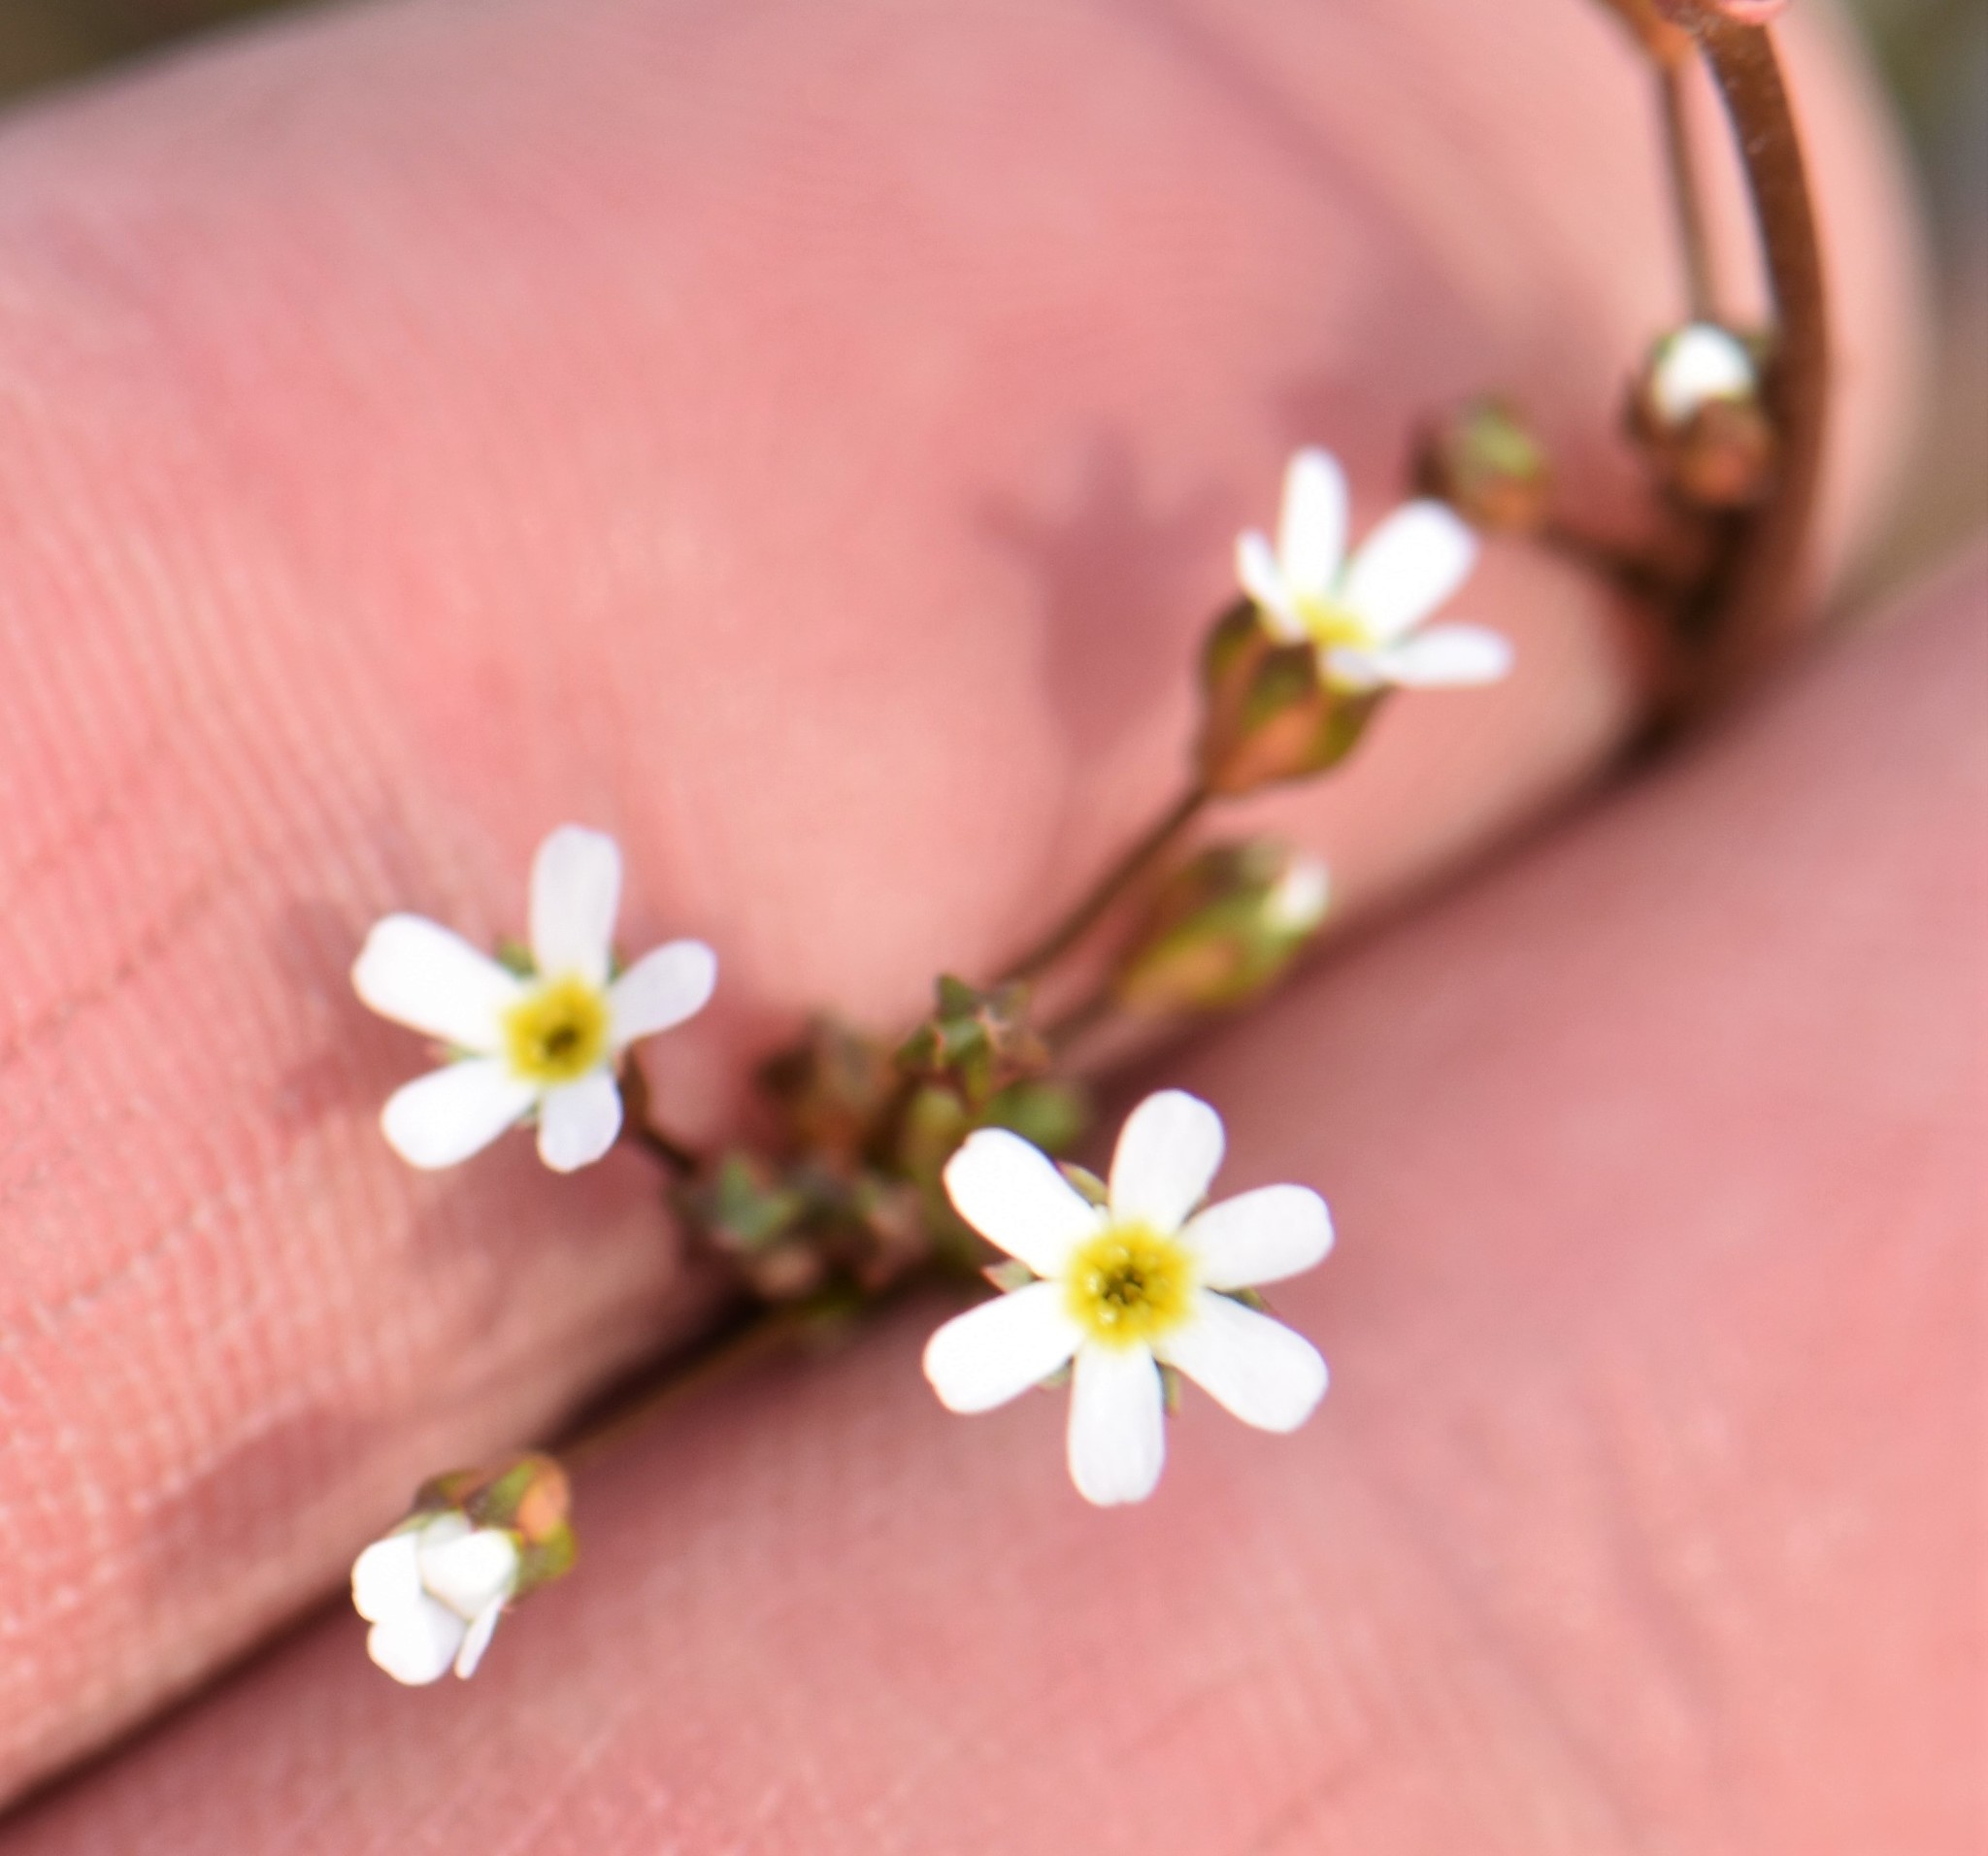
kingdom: Plantae
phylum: Tracheophyta
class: Magnoliopsida
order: Ericales
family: Primulaceae
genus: Androsace
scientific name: Androsace septentrionalis
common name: Hairy northern fairy-candelabra
